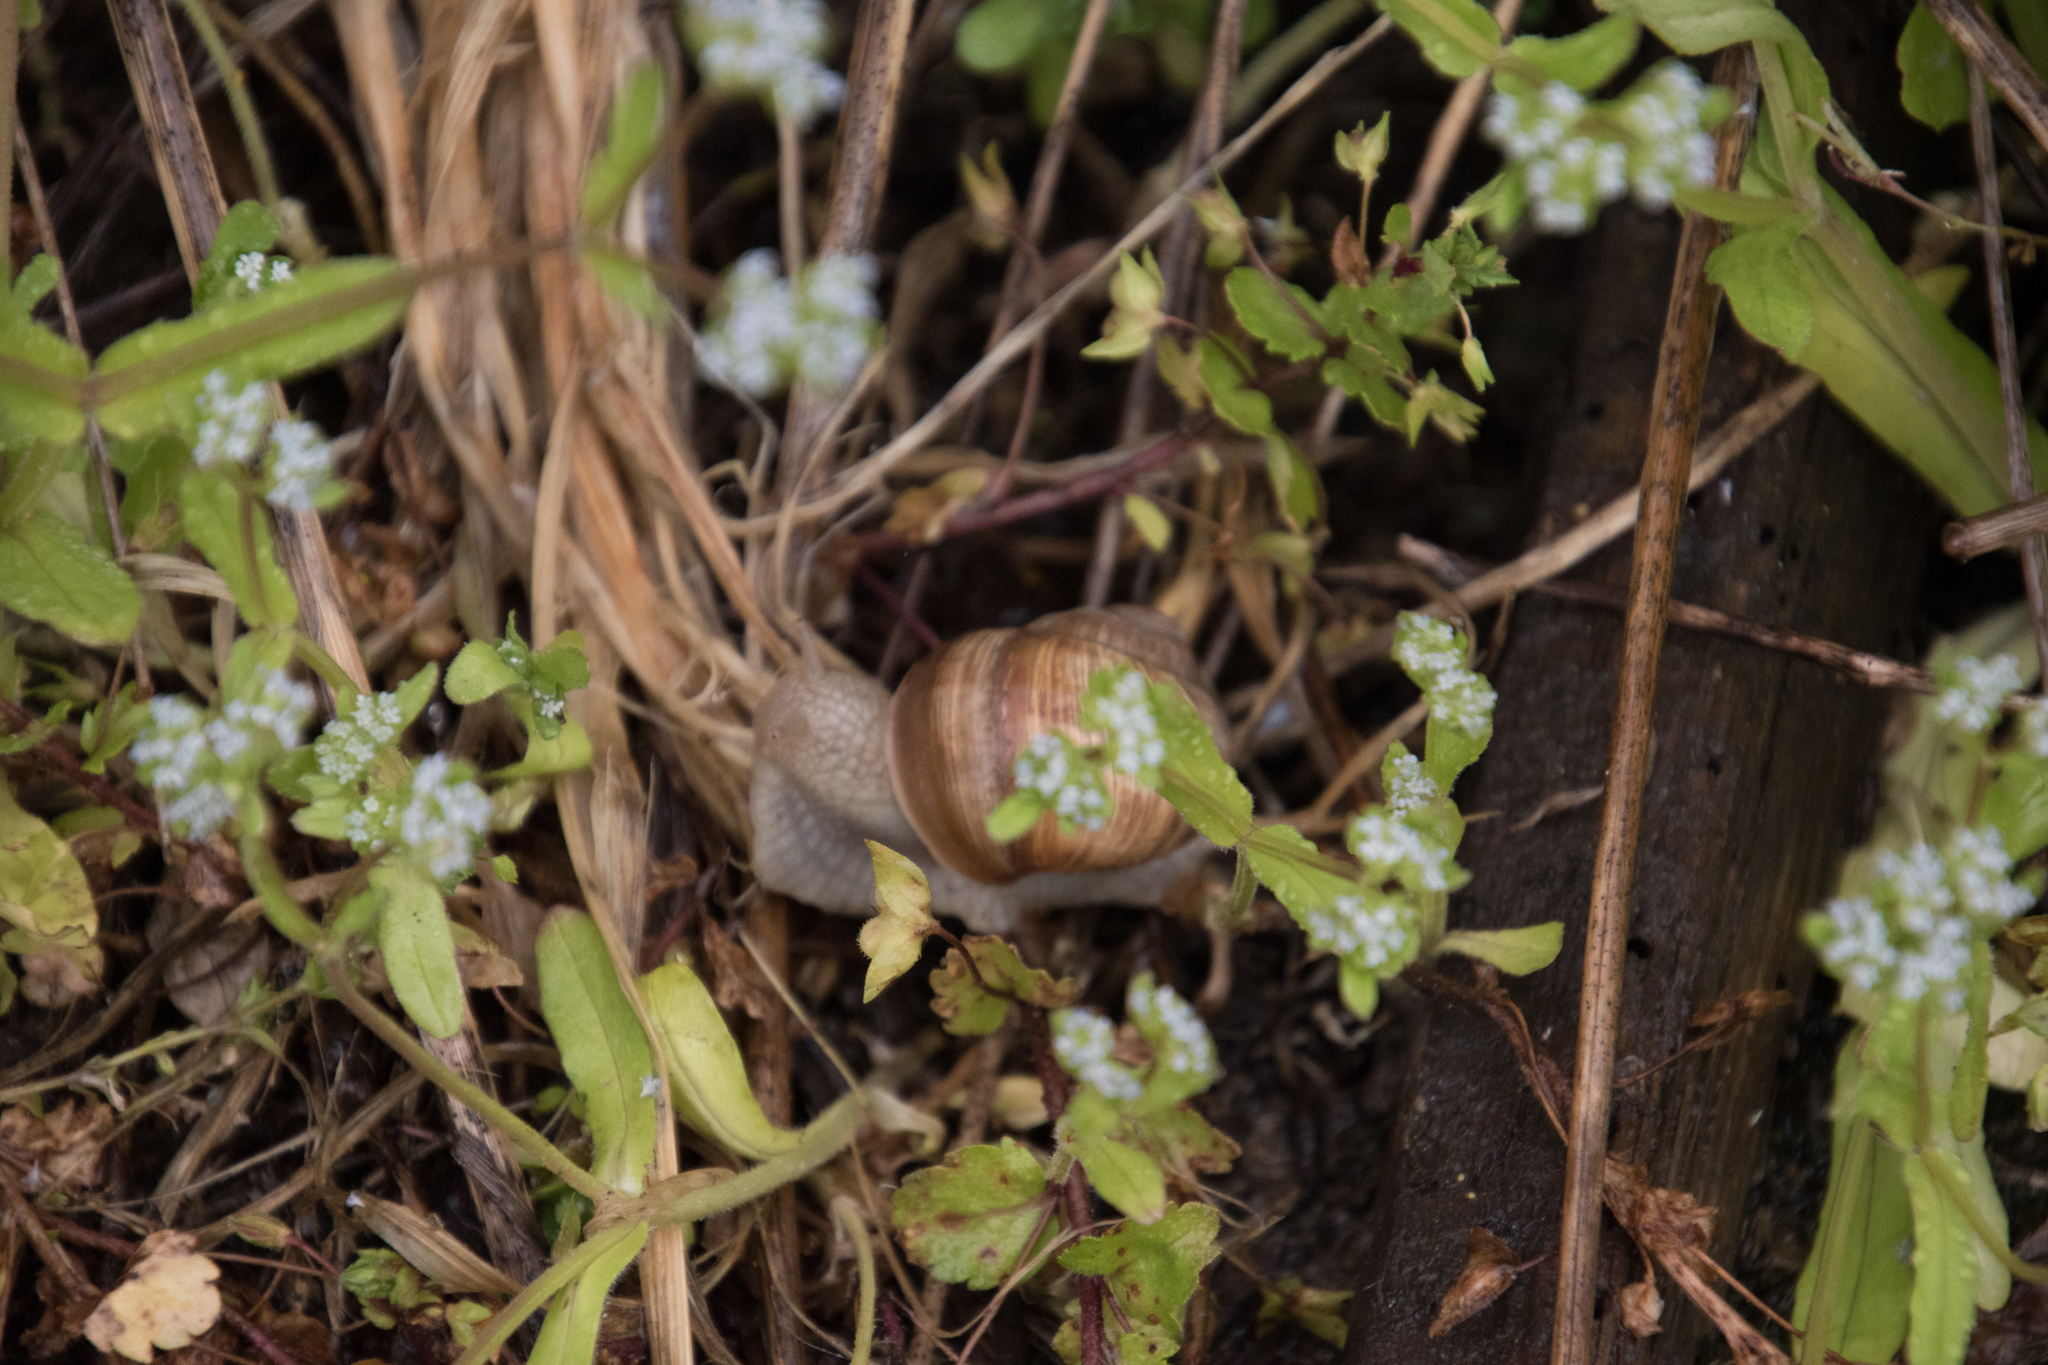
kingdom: Animalia
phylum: Mollusca
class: Gastropoda
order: Stylommatophora
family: Helicidae
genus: Helix
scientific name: Helix pomatia
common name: Roman snail
